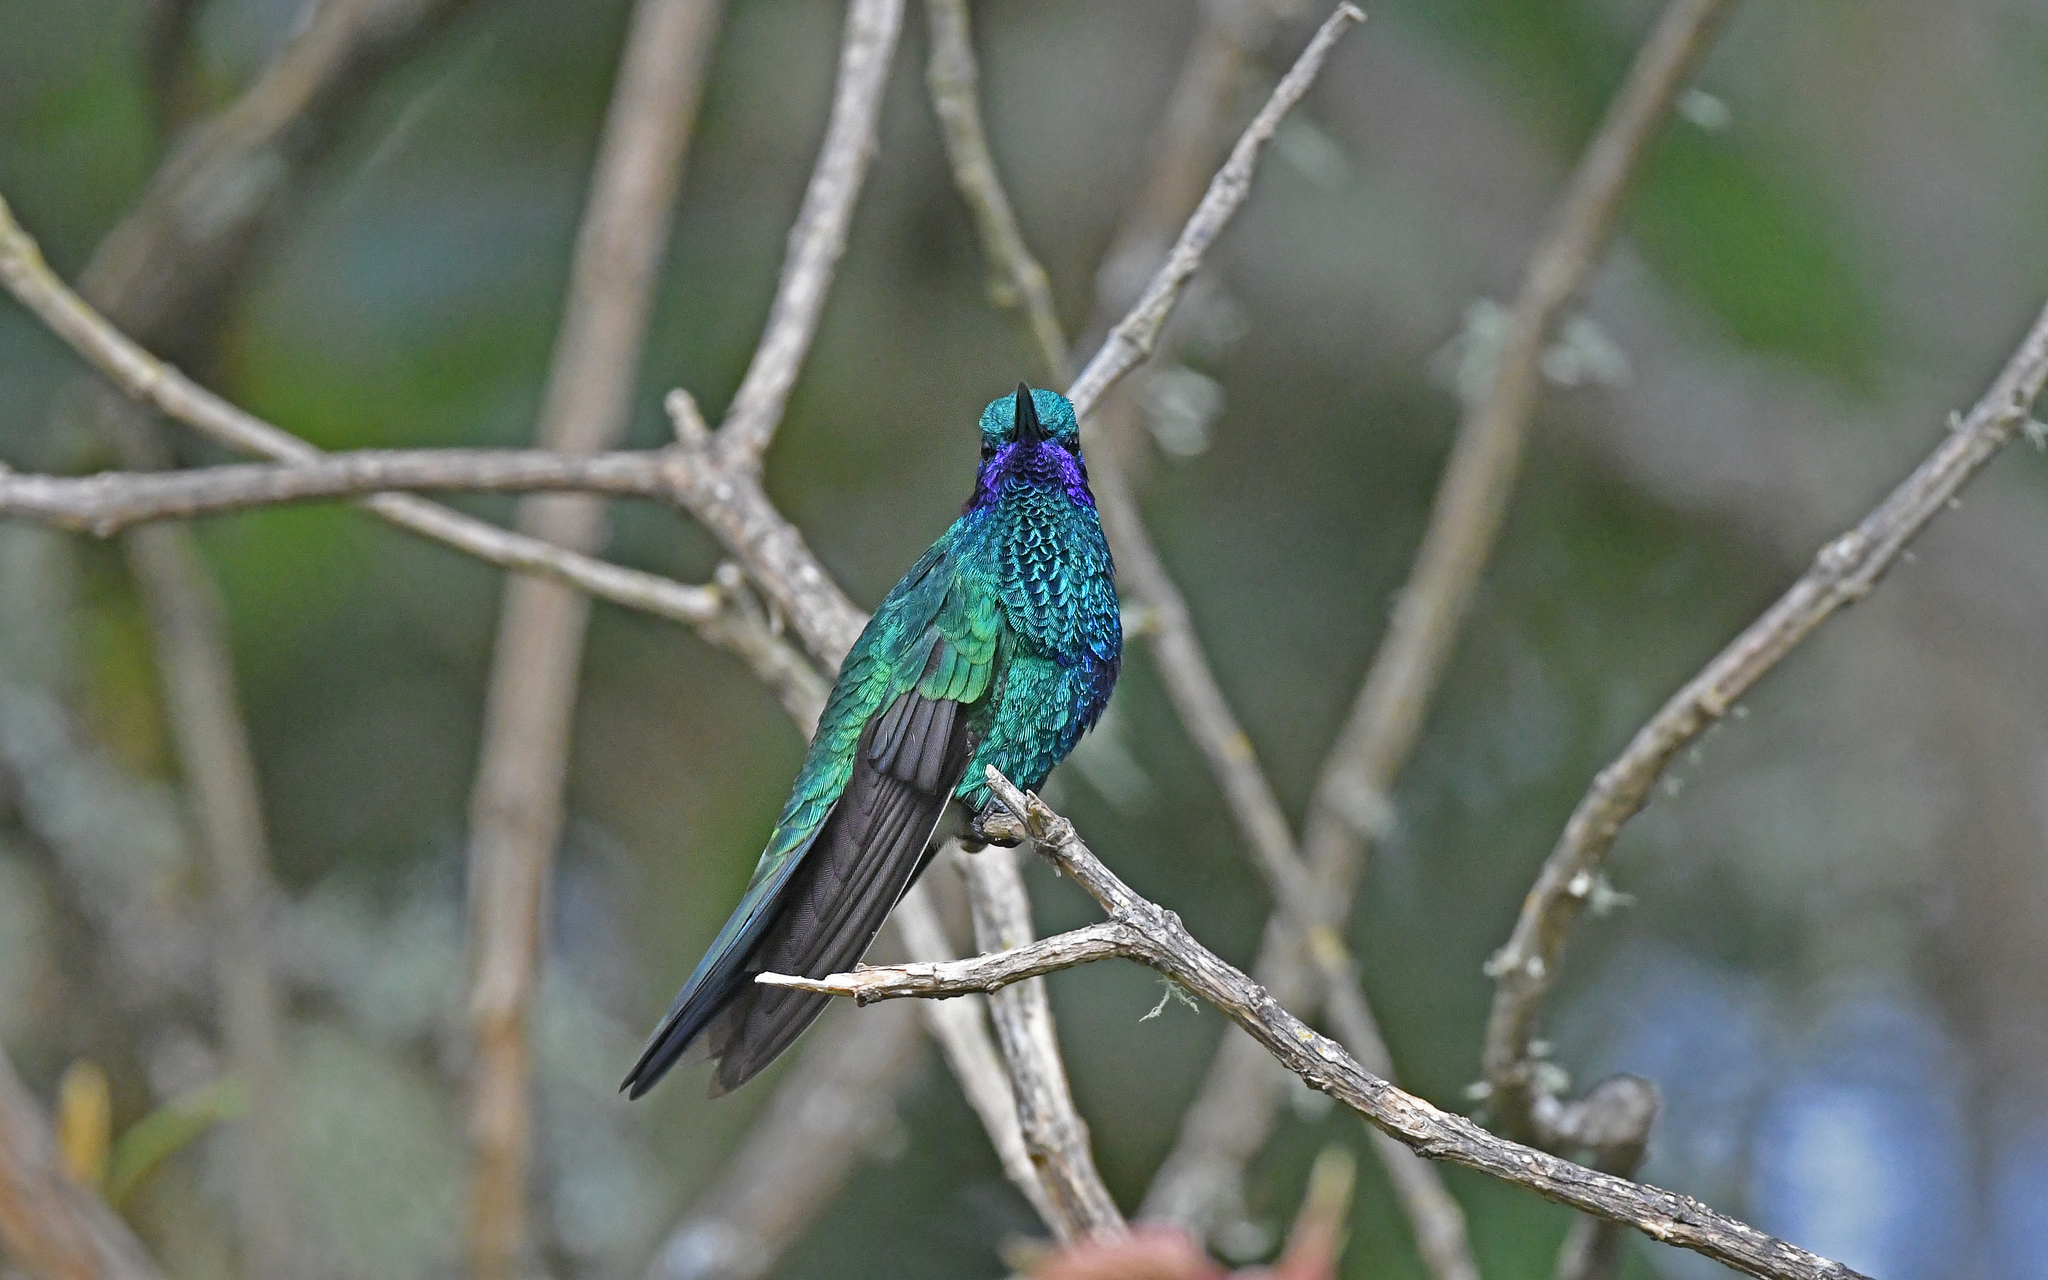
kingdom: Animalia
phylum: Chordata
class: Aves
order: Apodiformes
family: Trochilidae
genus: Colibri
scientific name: Colibri coruscans
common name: Sparkling violetear
